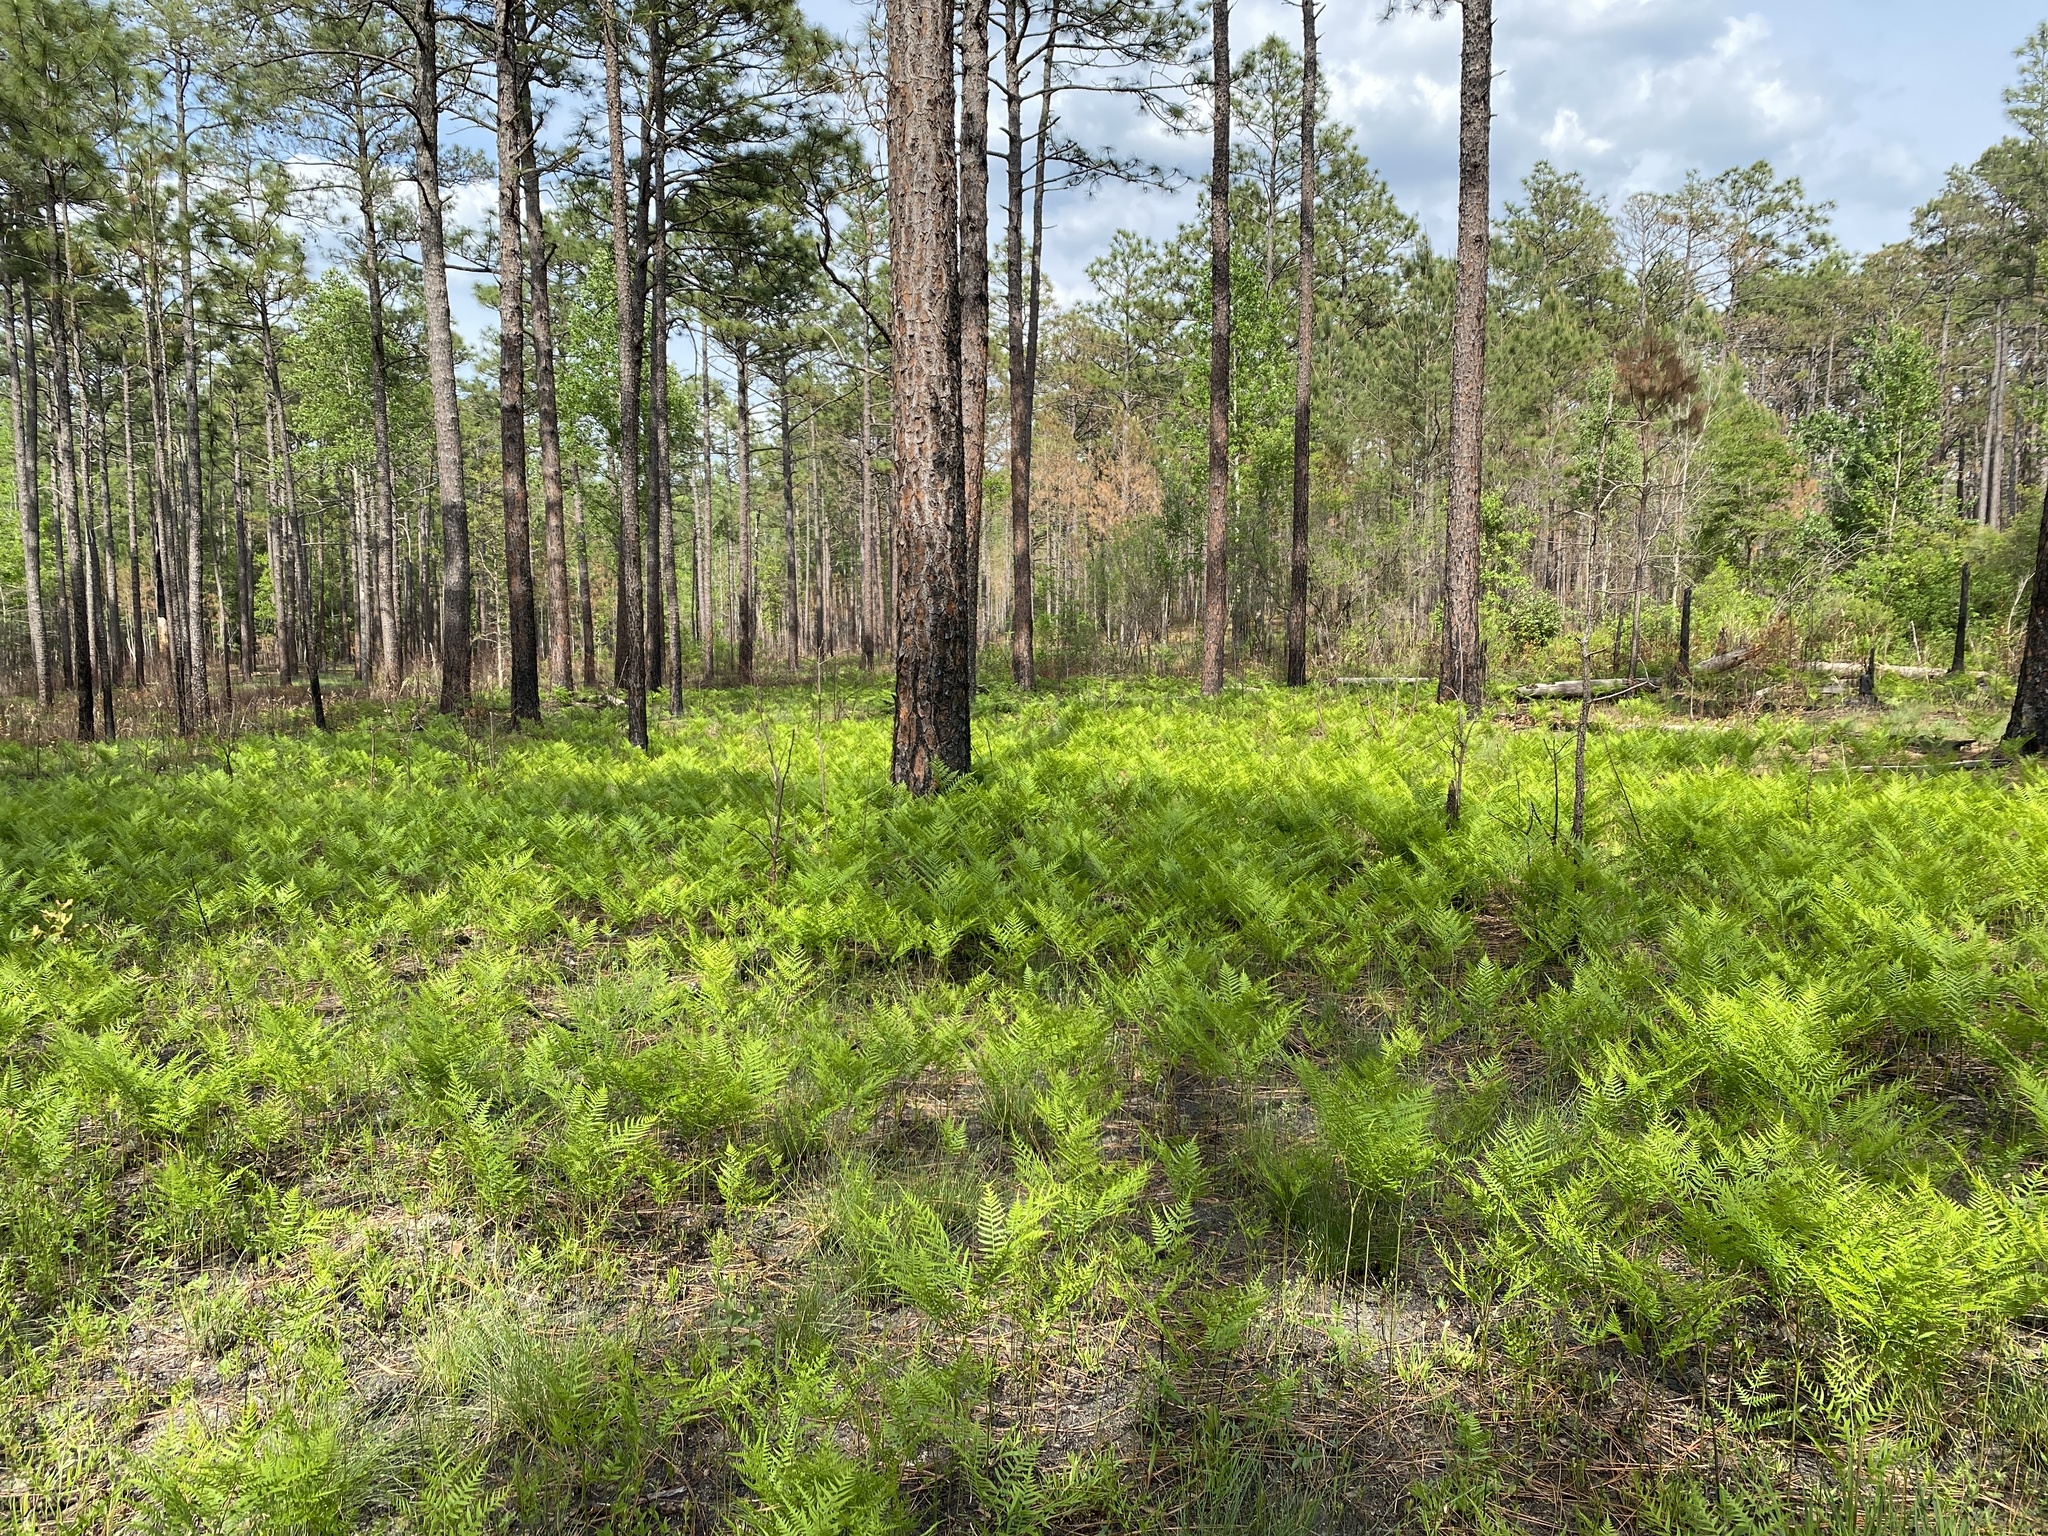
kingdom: Plantae
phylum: Tracheophyta
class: Polypodiopsida
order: Polypodiales
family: Dennstaedtiaceae
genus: Pteridium
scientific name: Pteridium
